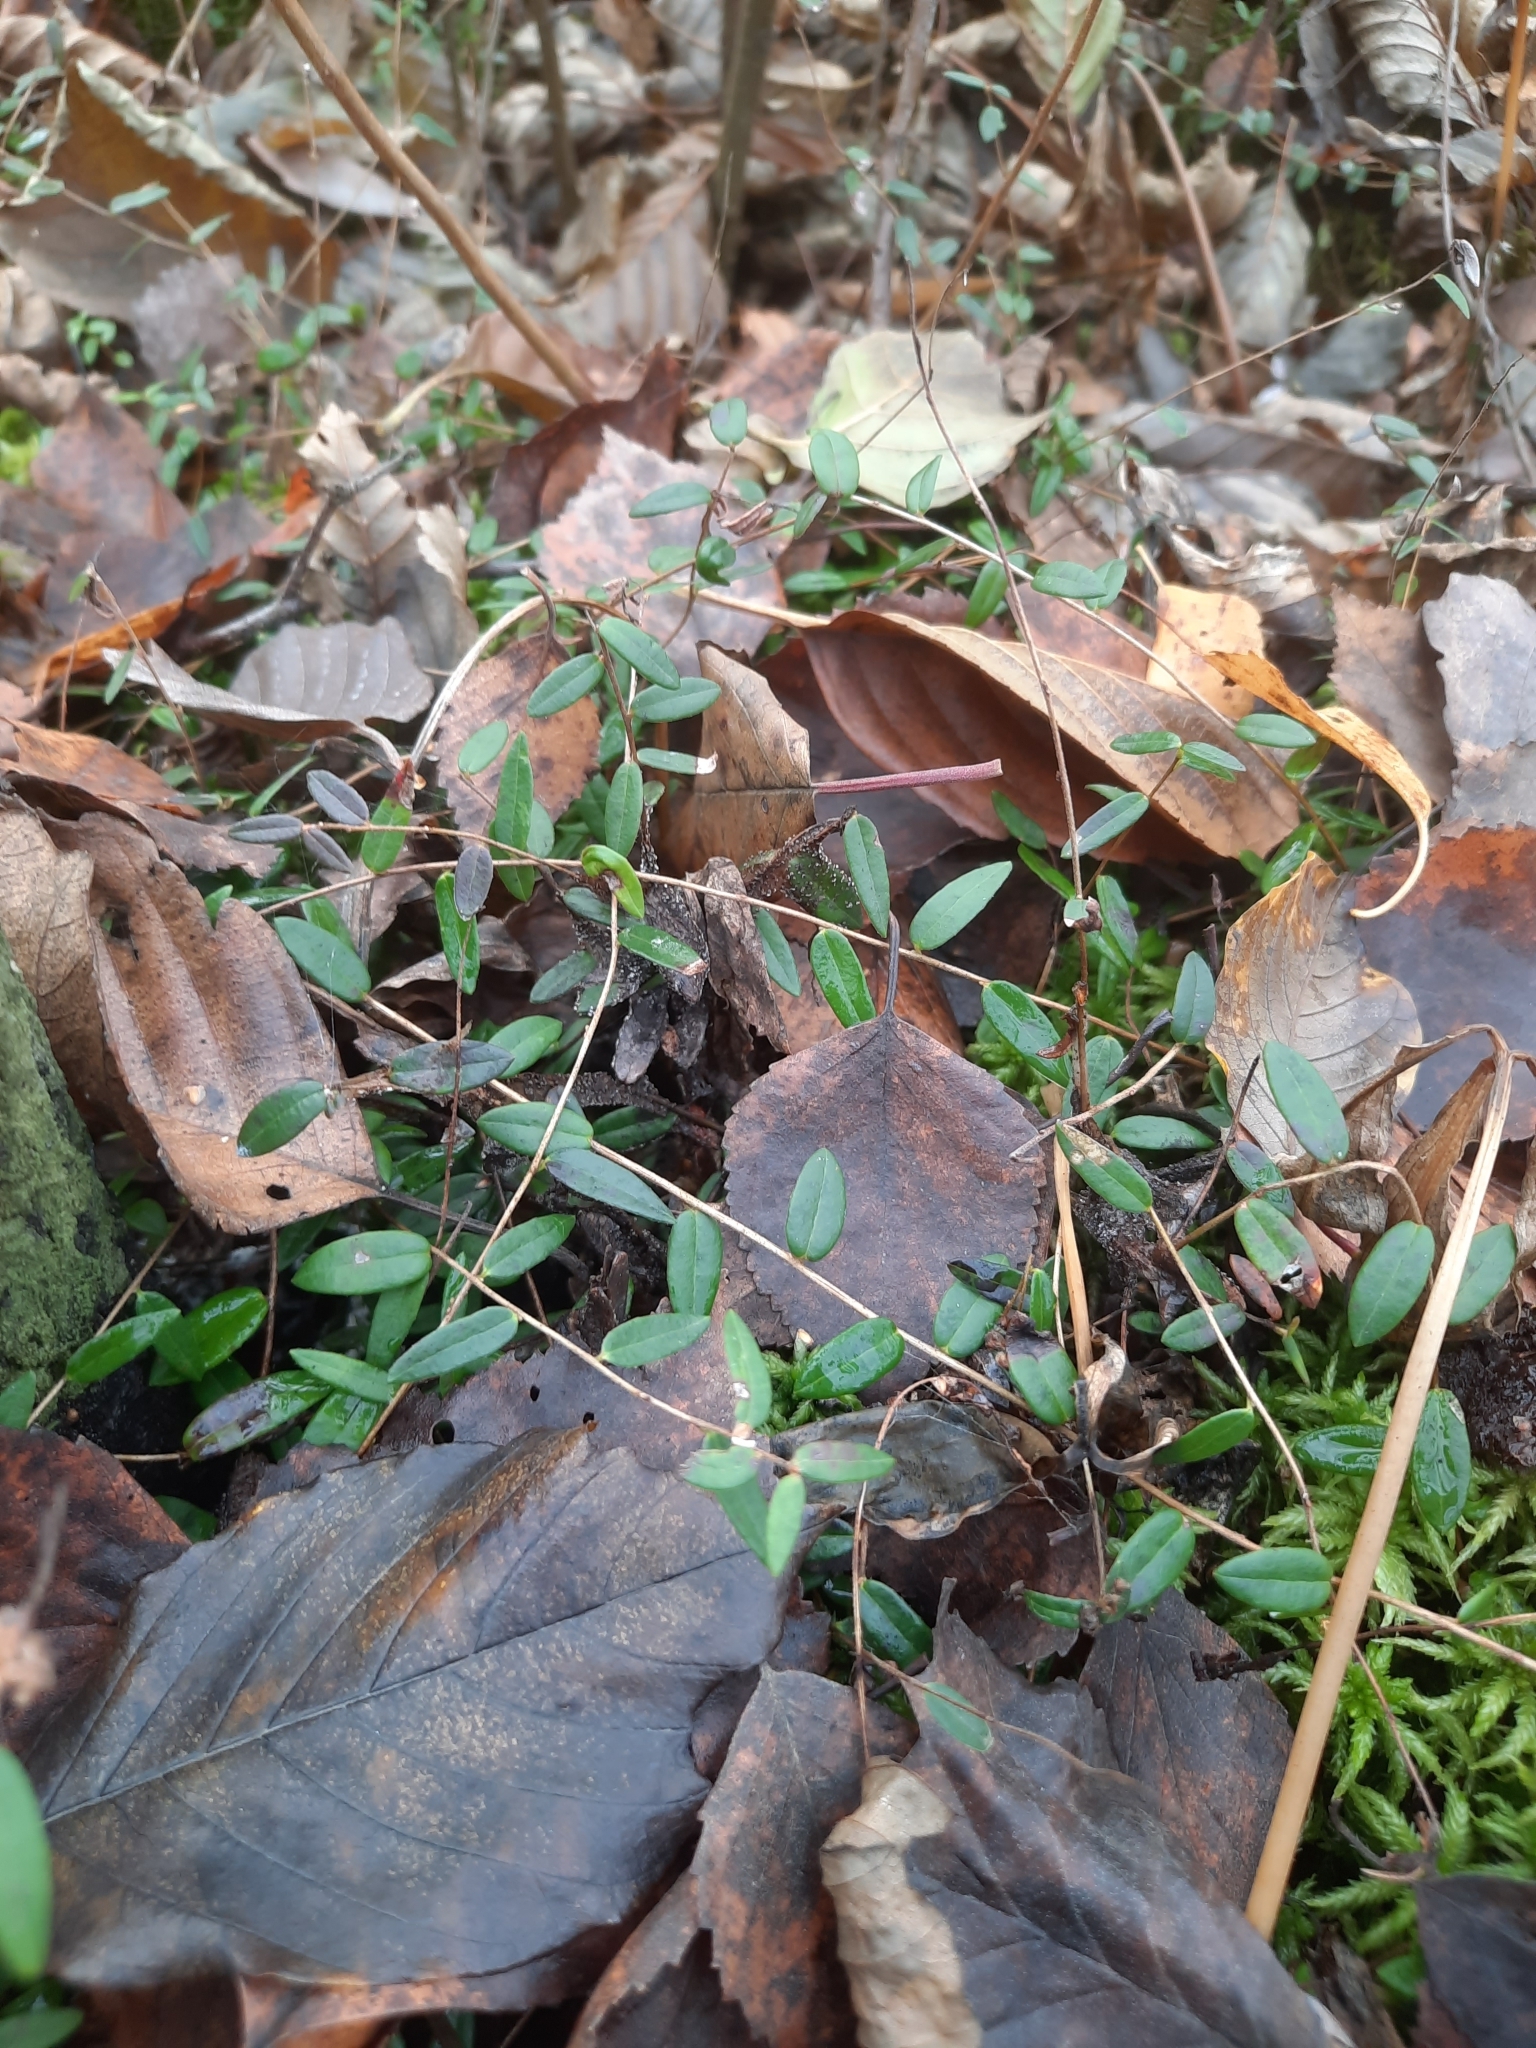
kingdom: Plantae
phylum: Tracheophyta
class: Magnoliopsida
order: Ericales
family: Ericaceae
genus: Vaccinium
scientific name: Vaccinium oxycoccos
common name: Cranberry
